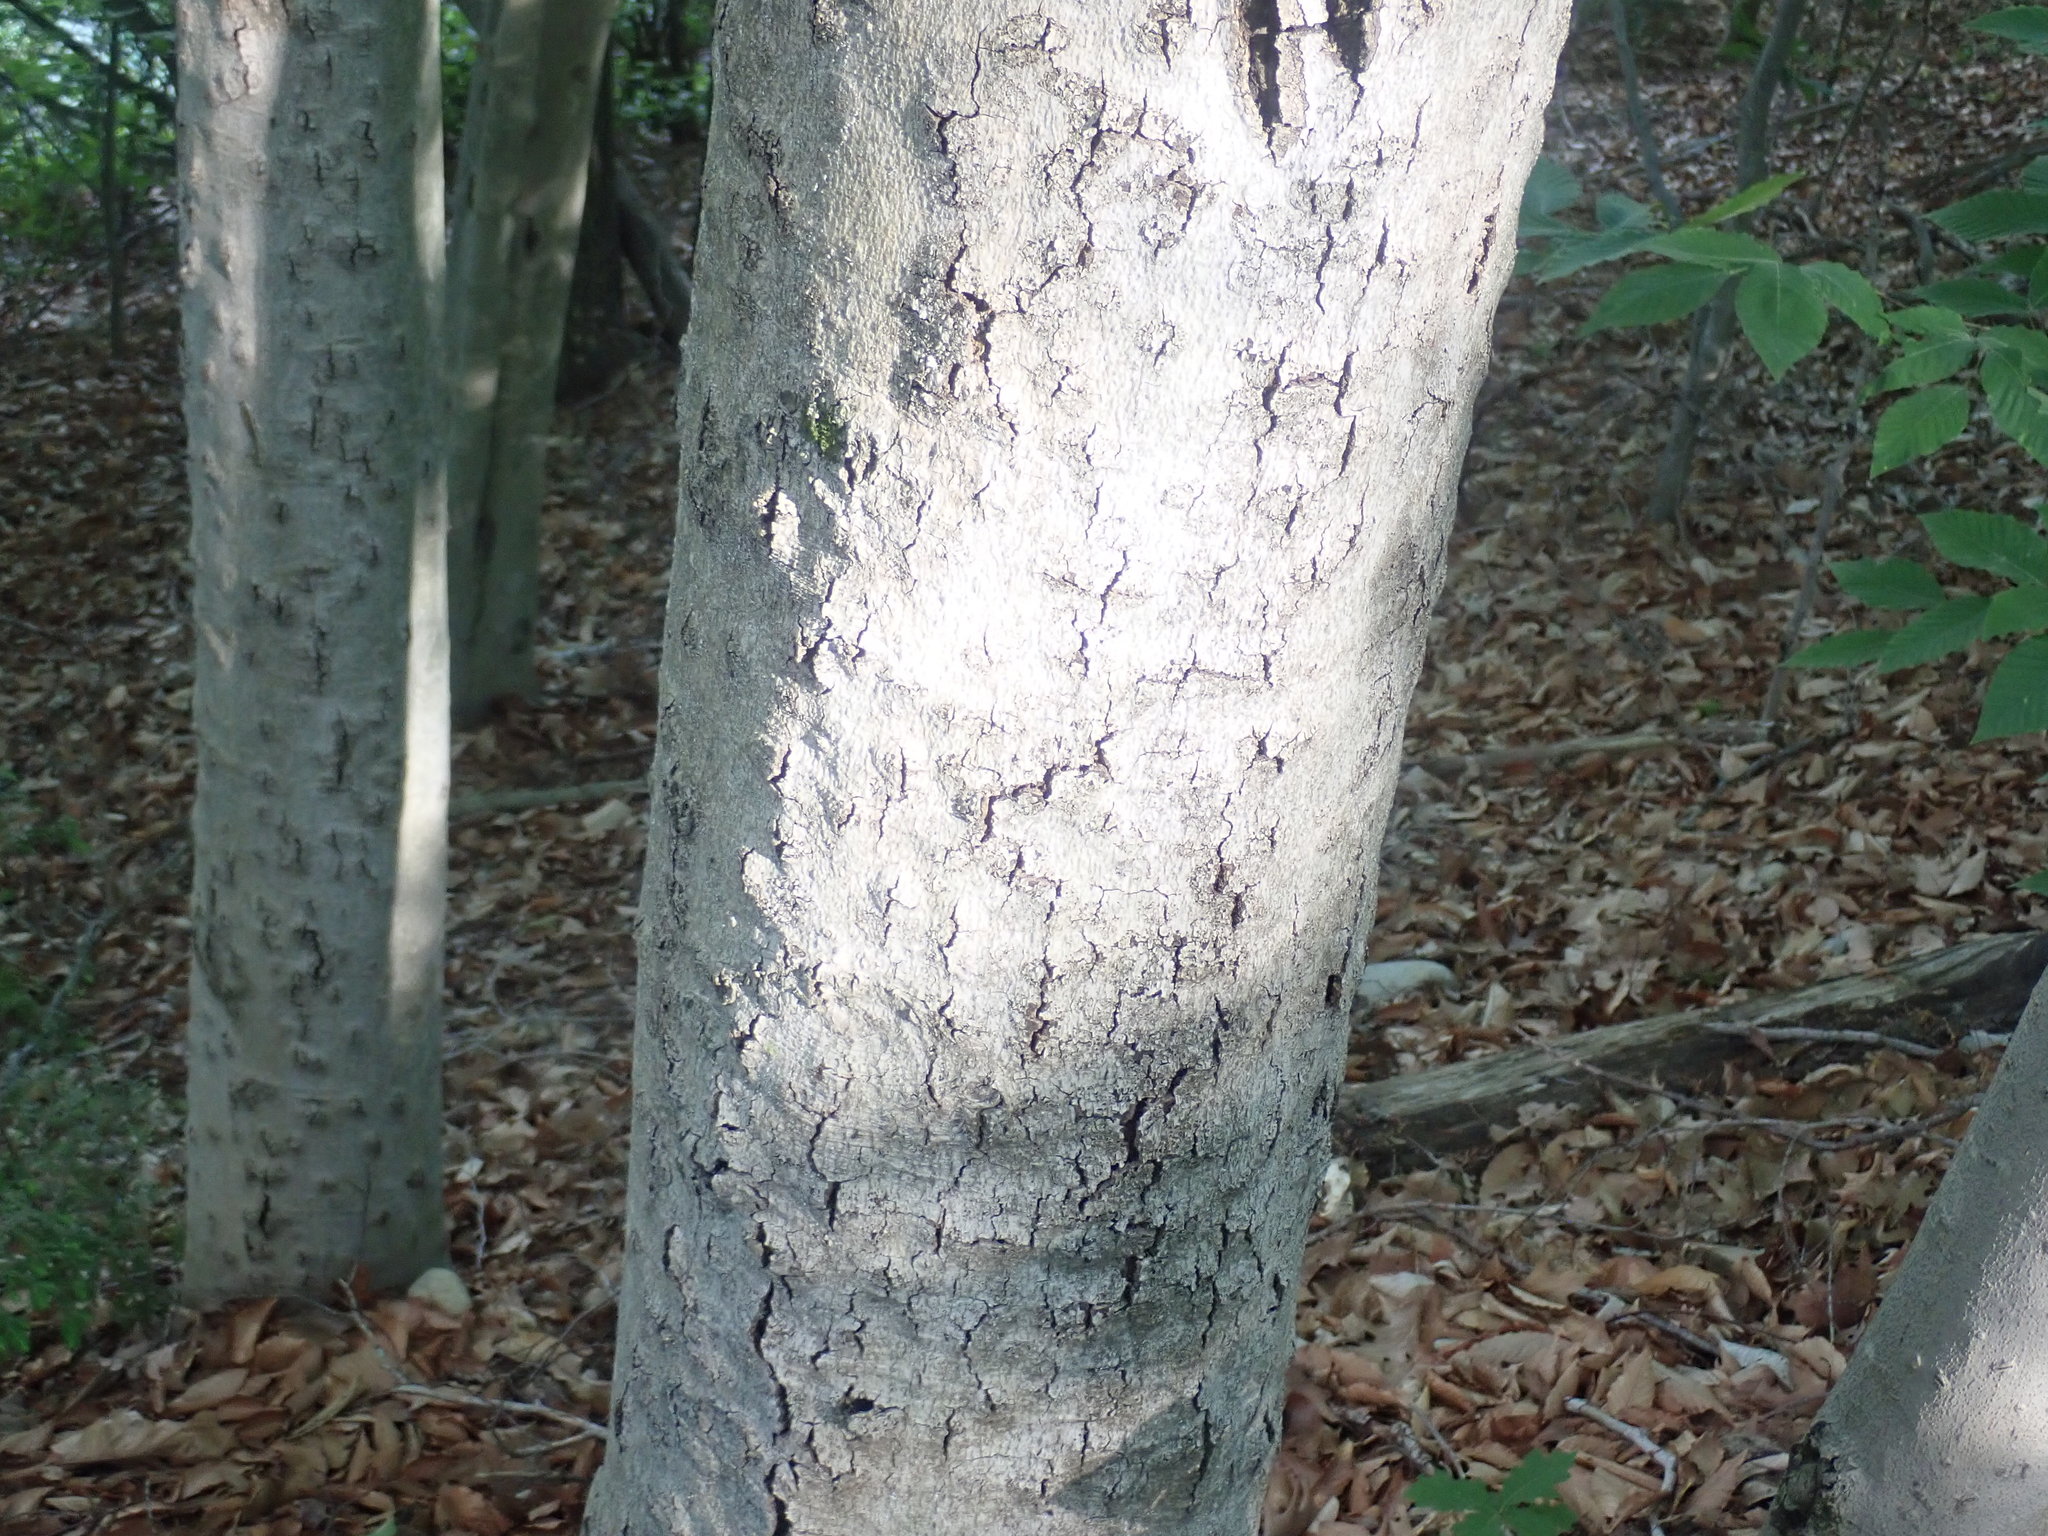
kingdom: Fungi
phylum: Ascomycota
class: Sordariomycetes
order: Hypocreales
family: Nectriaceae
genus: Neonectria
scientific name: Neonectria faginata
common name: Beech bark canker
